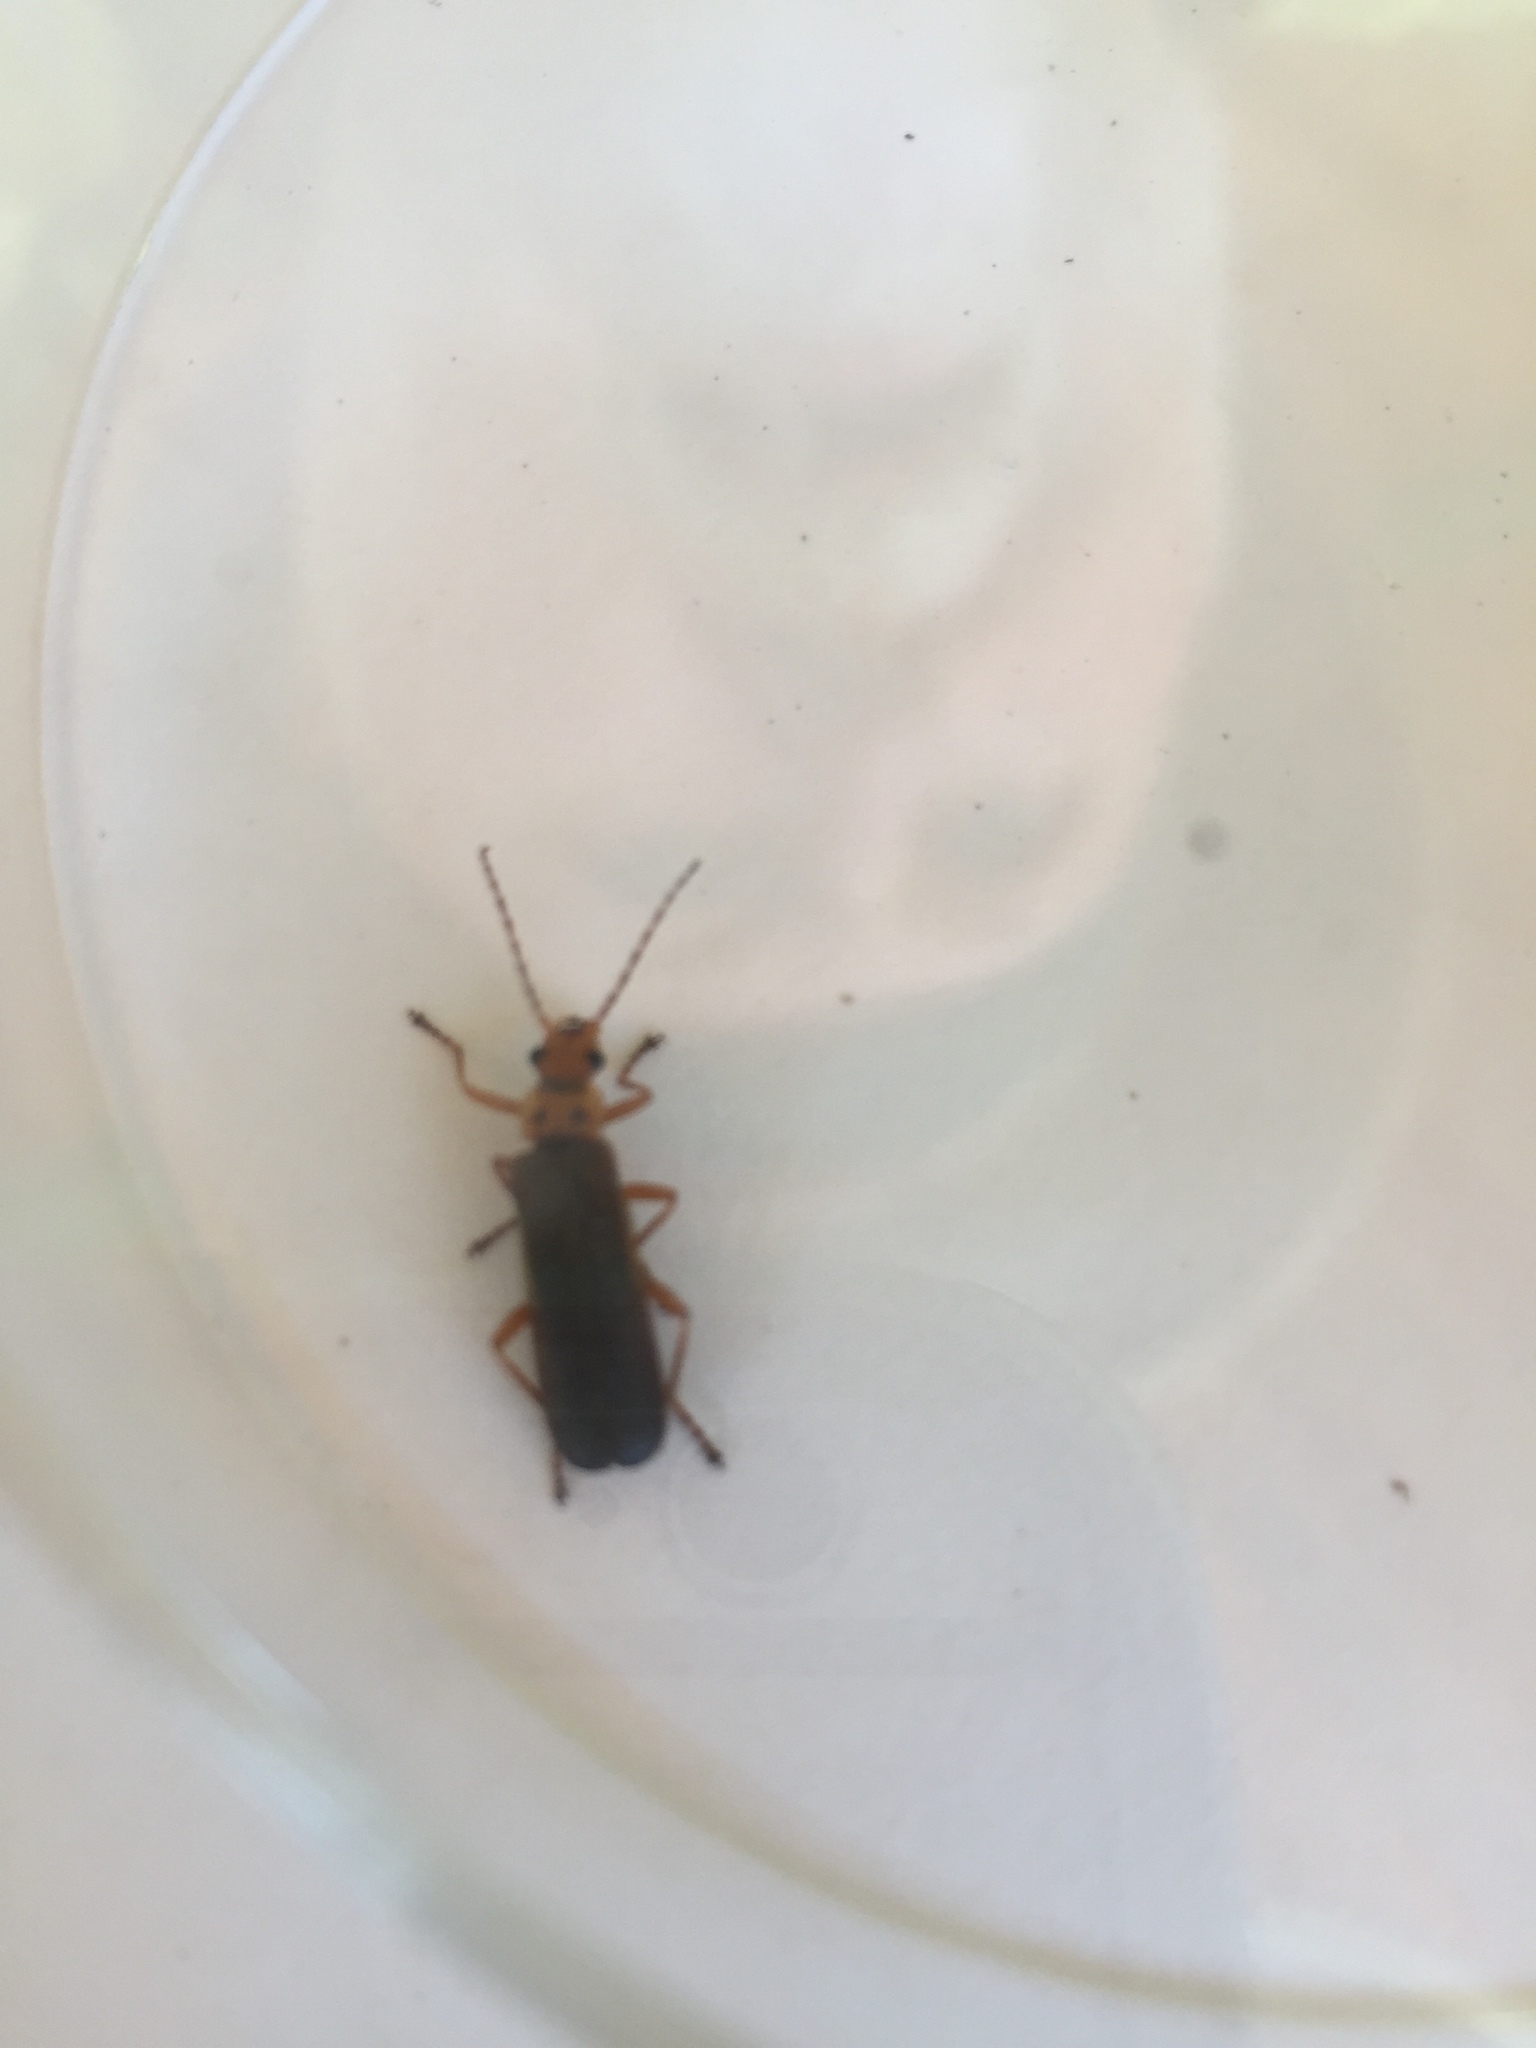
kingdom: Animalia
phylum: Arthropoda
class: Insecta
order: Coleoptera
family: Cantharidae
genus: Podabrus
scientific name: Podabrus binotatus
